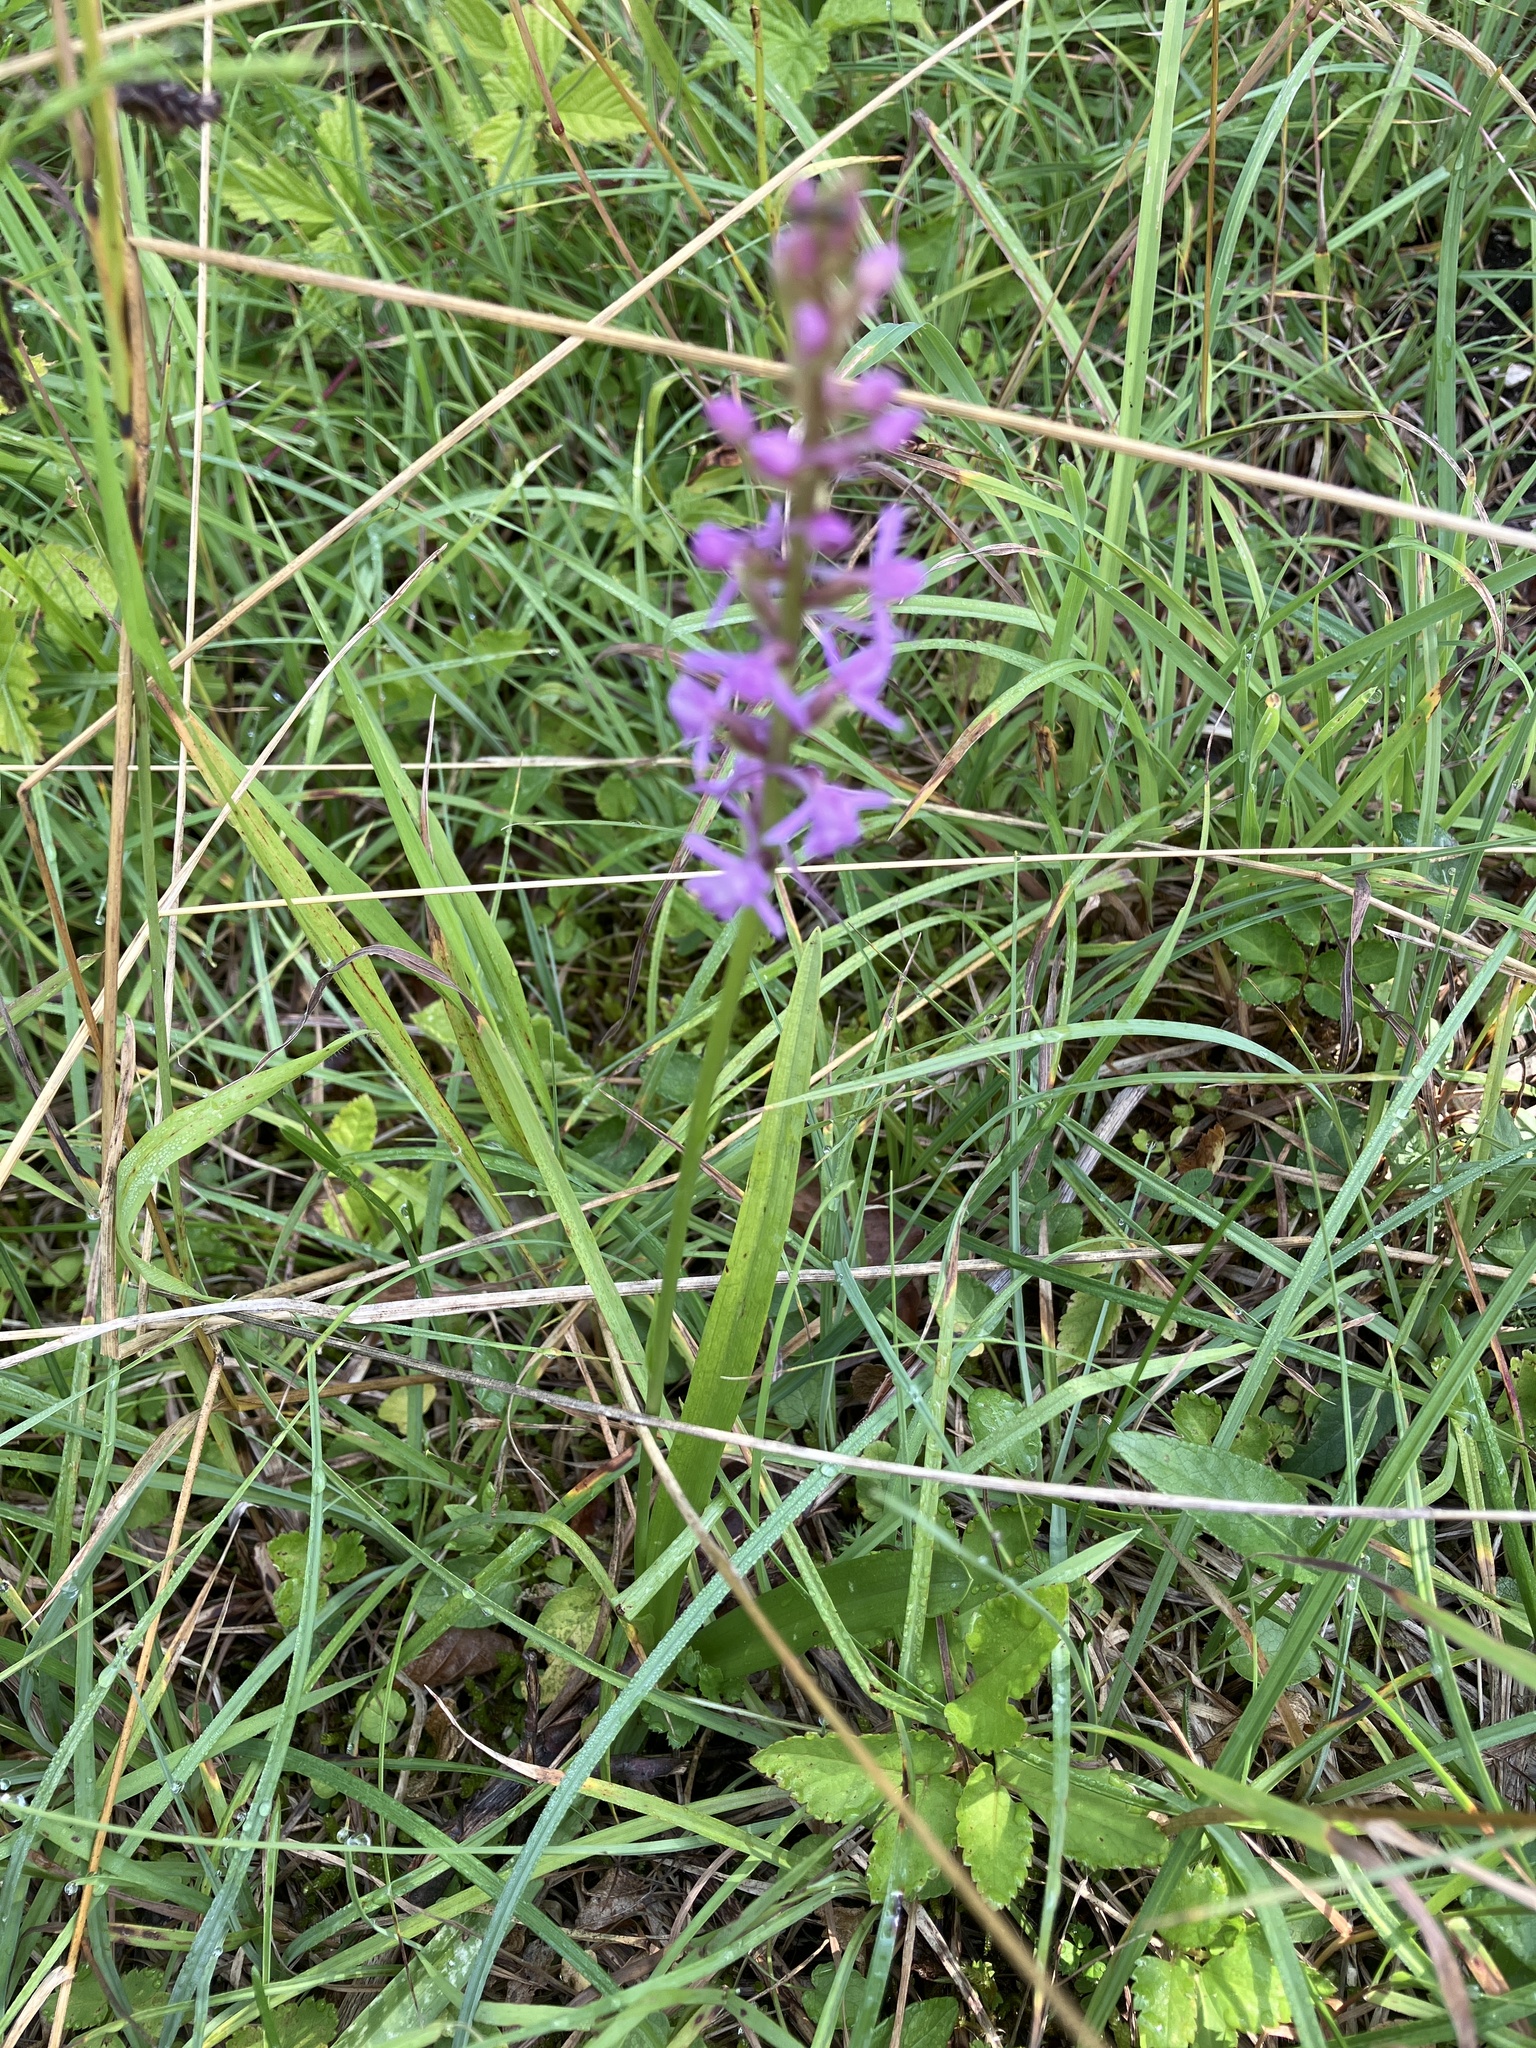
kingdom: Plantae
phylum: Tracheophyta
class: Liliopsida
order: Asparagales
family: Orchidaceae
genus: Gymnadenia
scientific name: Gymnadenia conopsea
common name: Fragrant orchid
